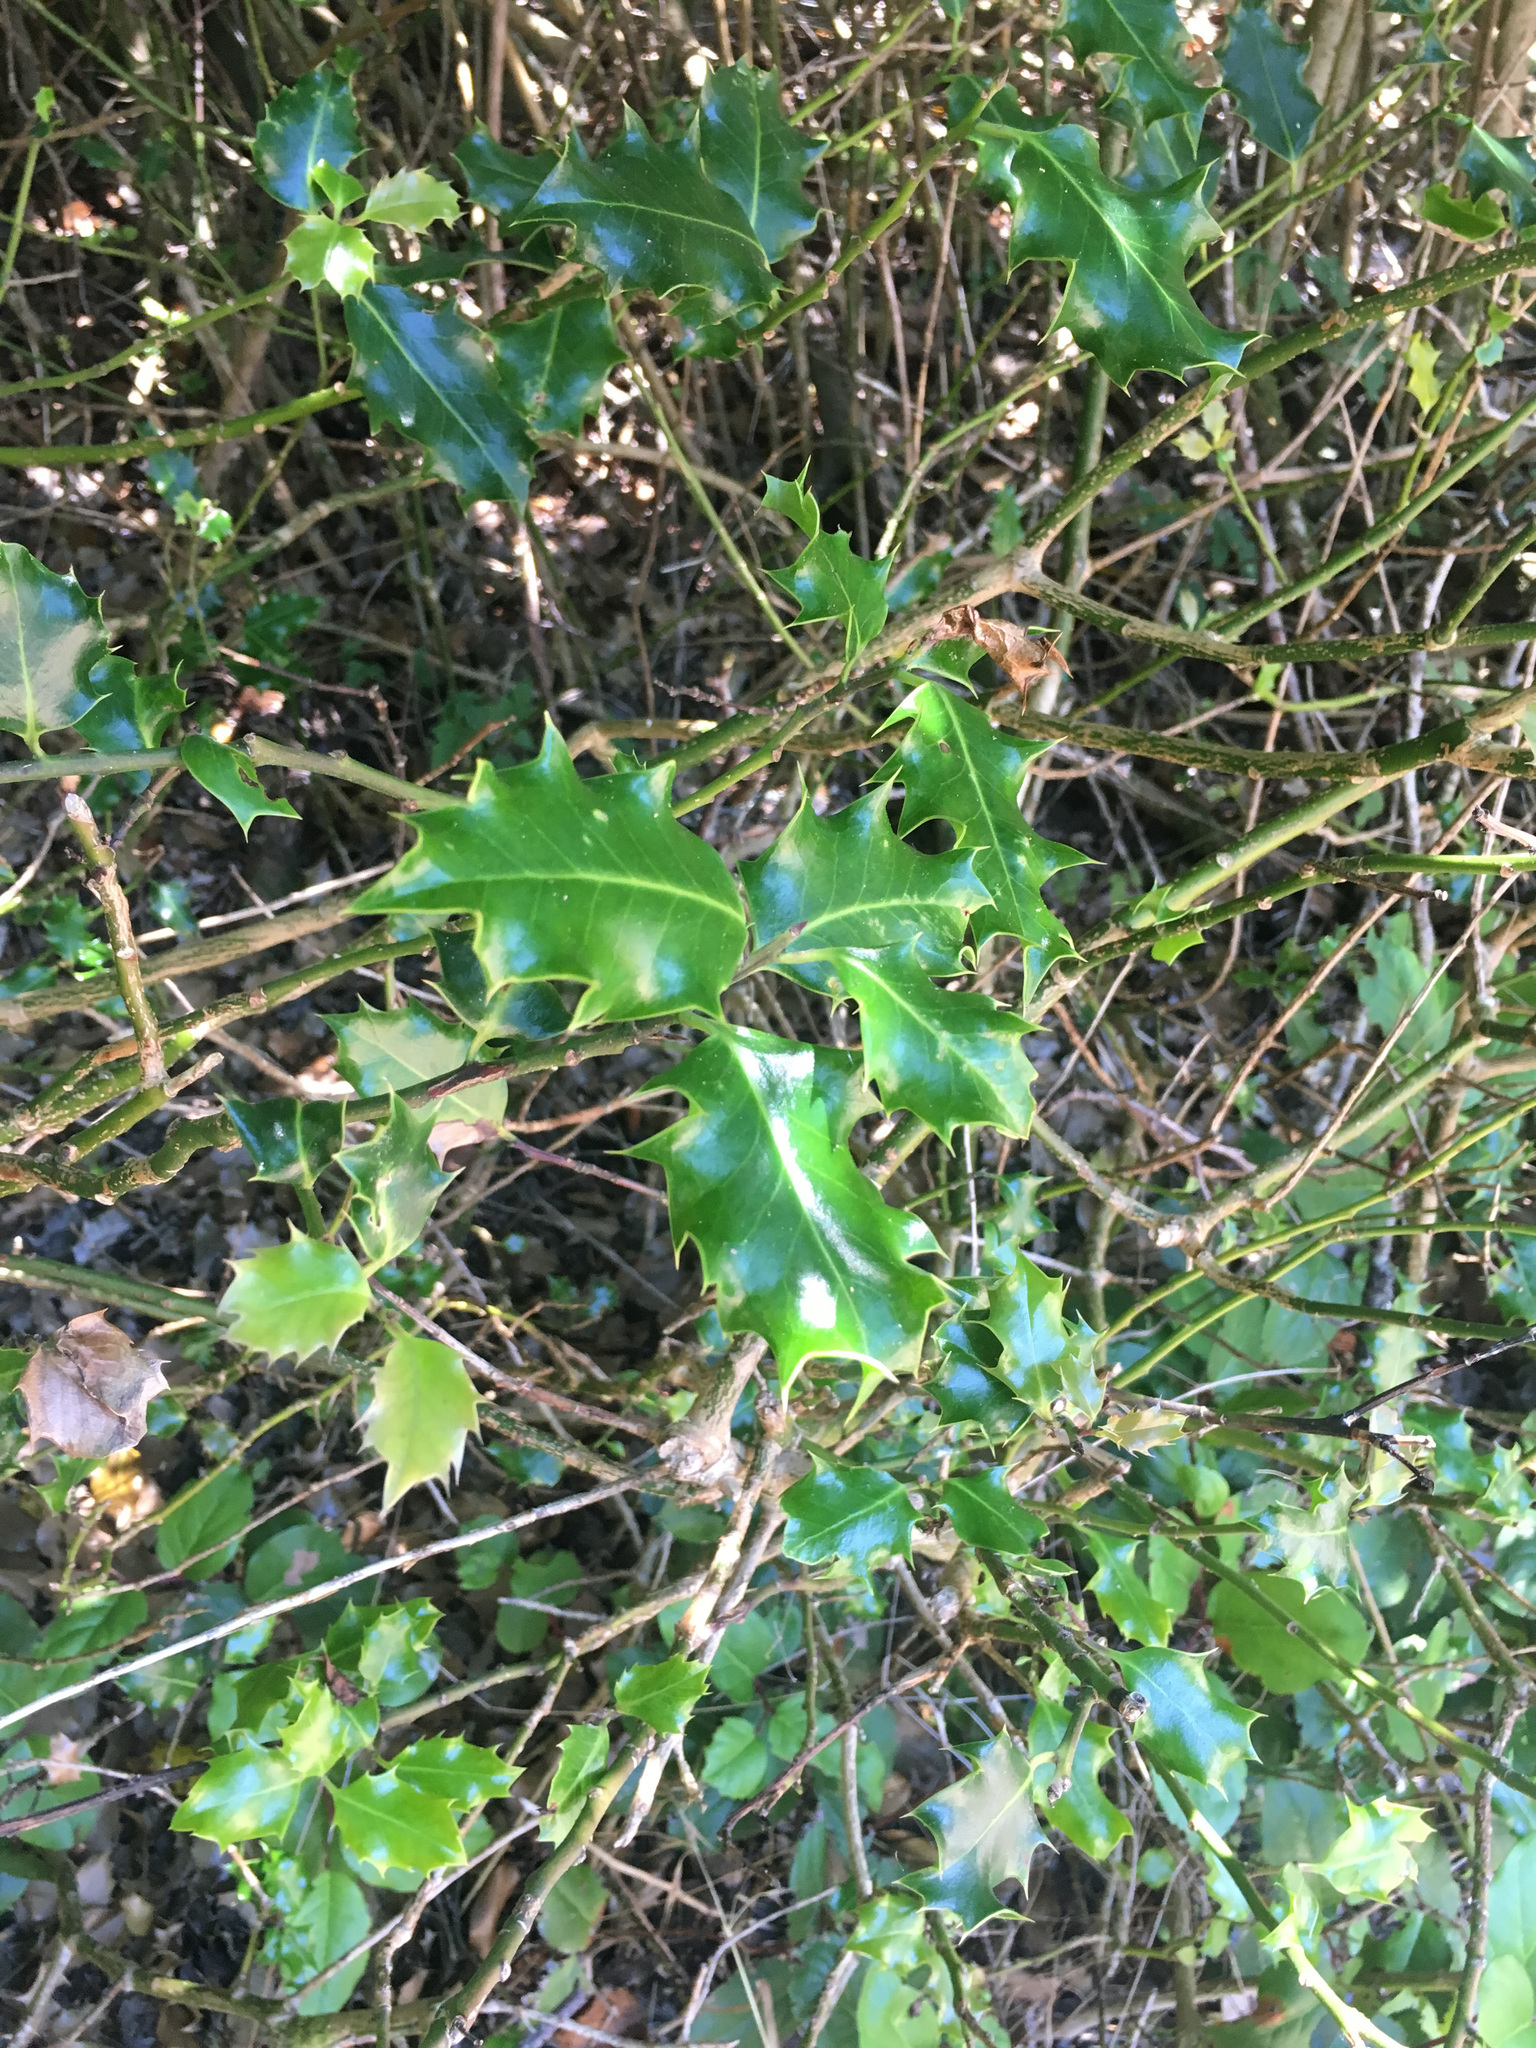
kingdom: Plantae
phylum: Tracheophyta
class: Magnoliopsida
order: Aquifoliales
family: Aquifoliaceae
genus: Ilex
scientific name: Ilex aquifolium
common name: English holly
